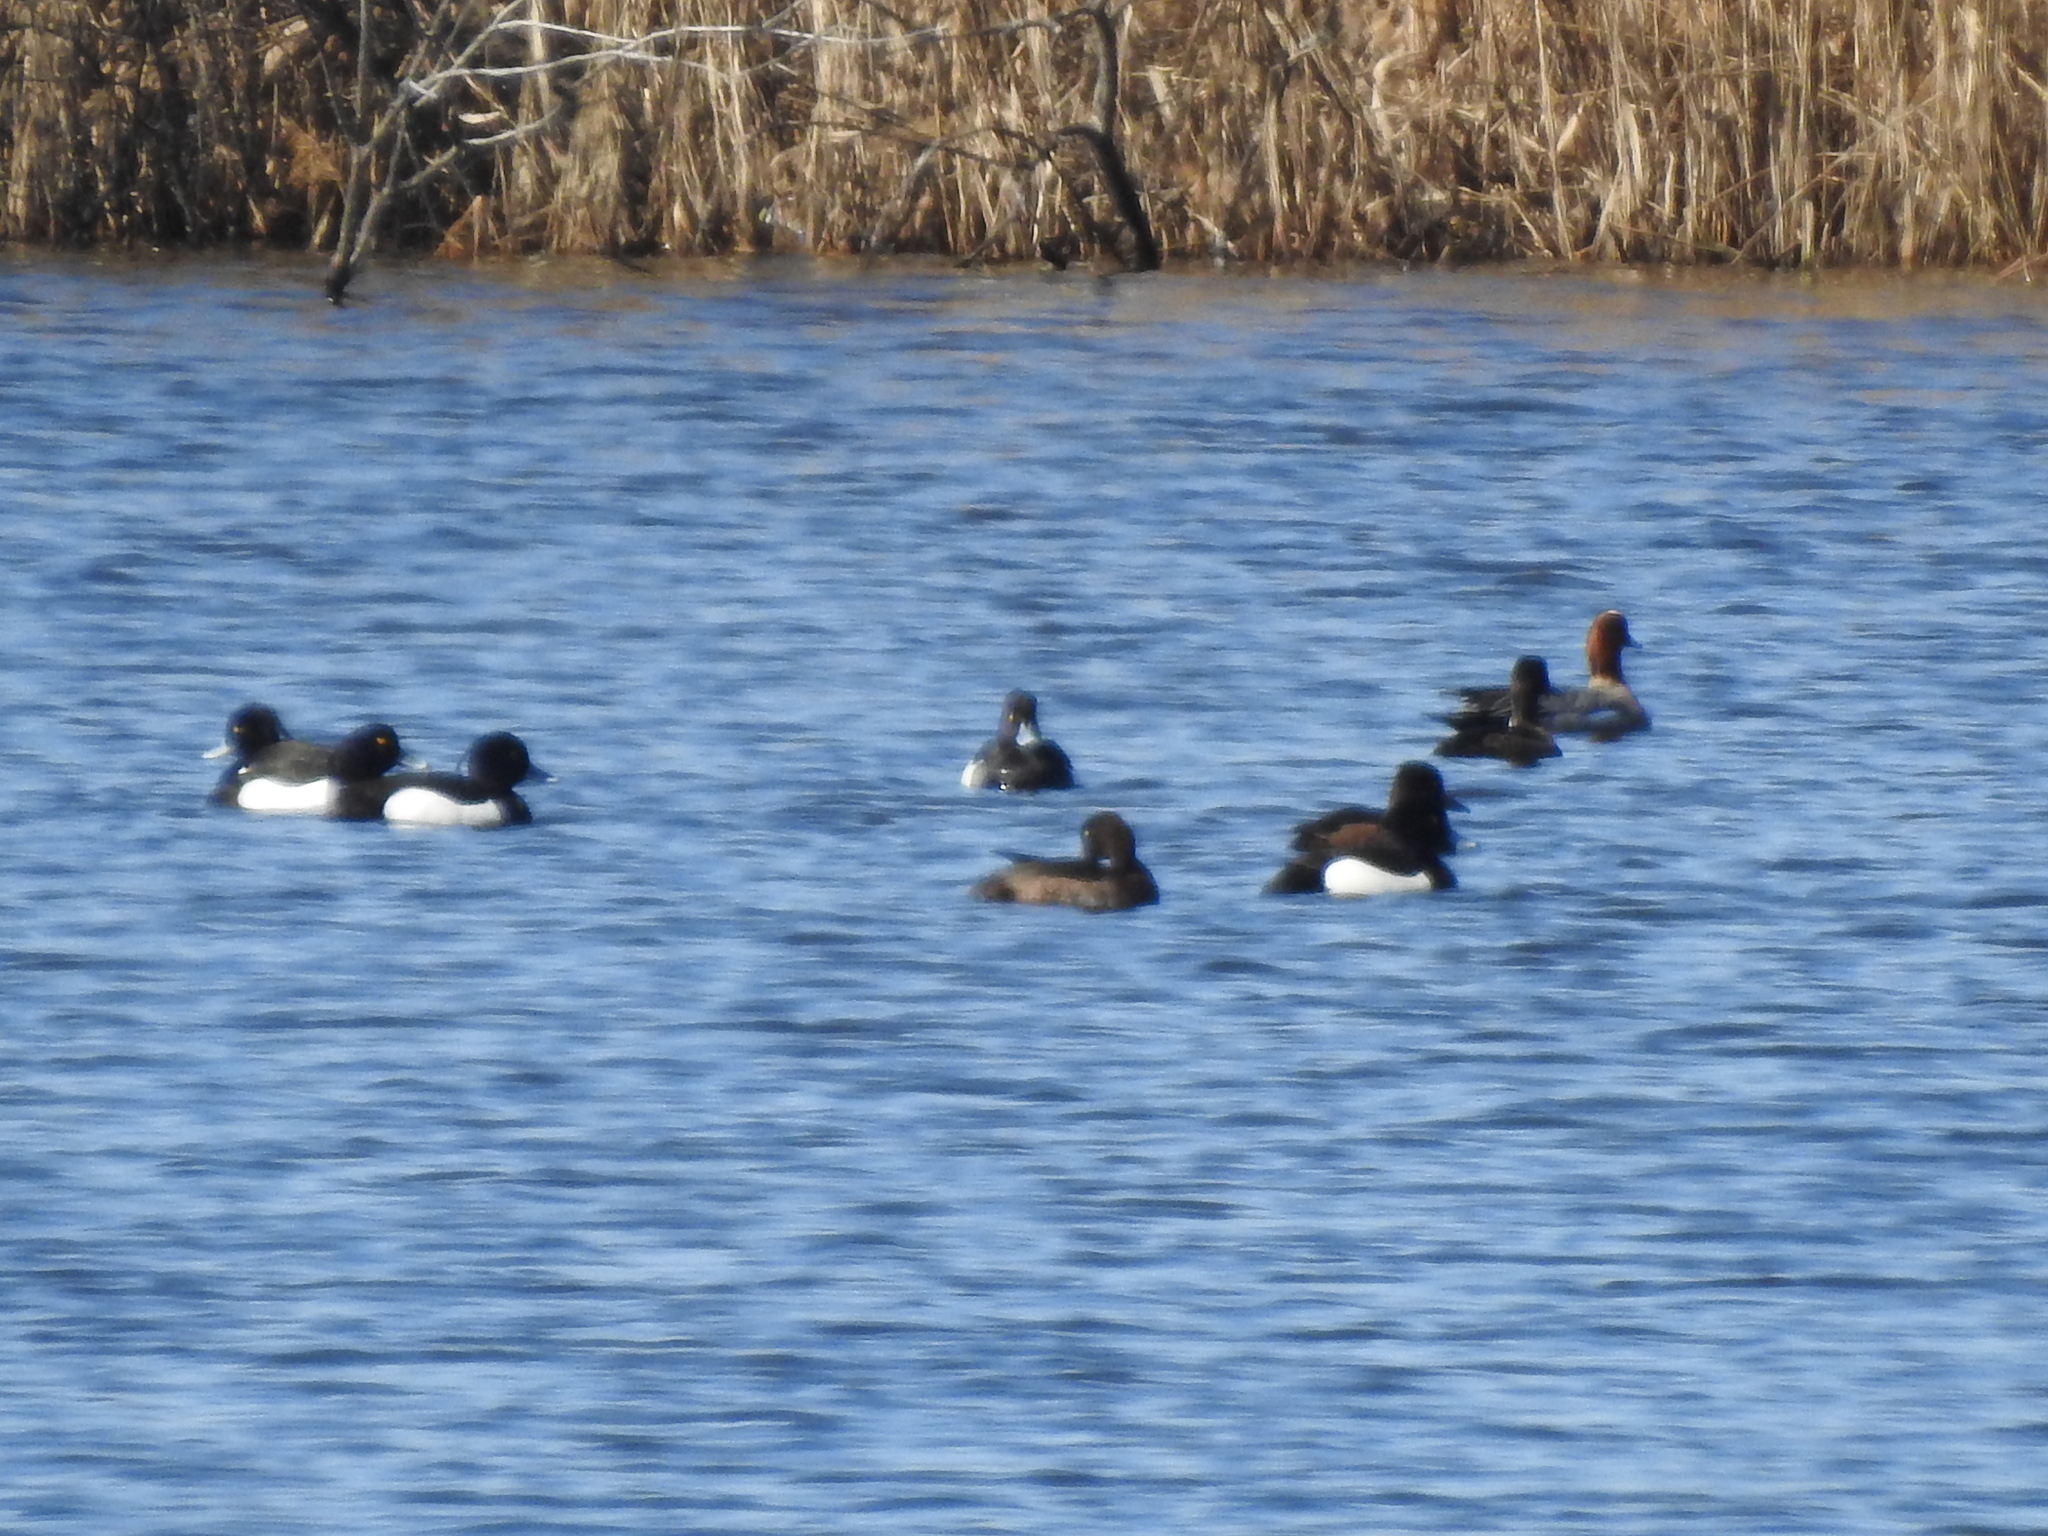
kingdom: Animalia
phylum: Chordata
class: Aves
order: Anseriformes
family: Anatidae
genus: Aythya
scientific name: Aythya fuligula
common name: Tufted duck
